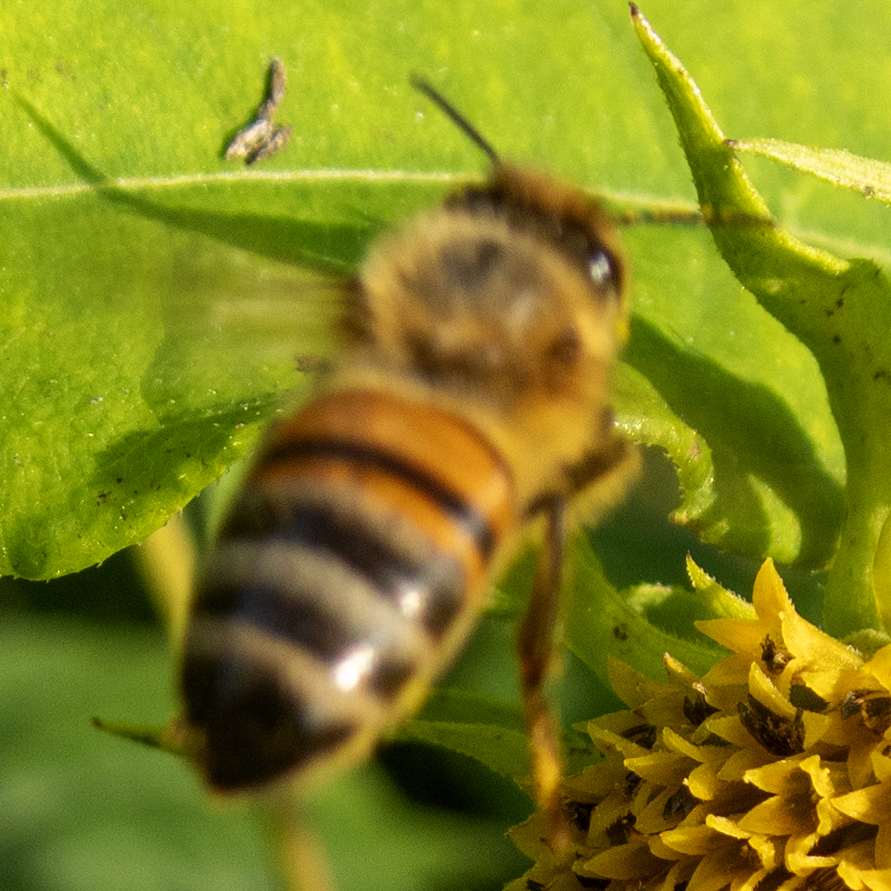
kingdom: Animalia
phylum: Arthropoda
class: Insecta
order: Hymenoptera
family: Apidae
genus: Apis
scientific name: Apis mellifera
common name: Honey bee
